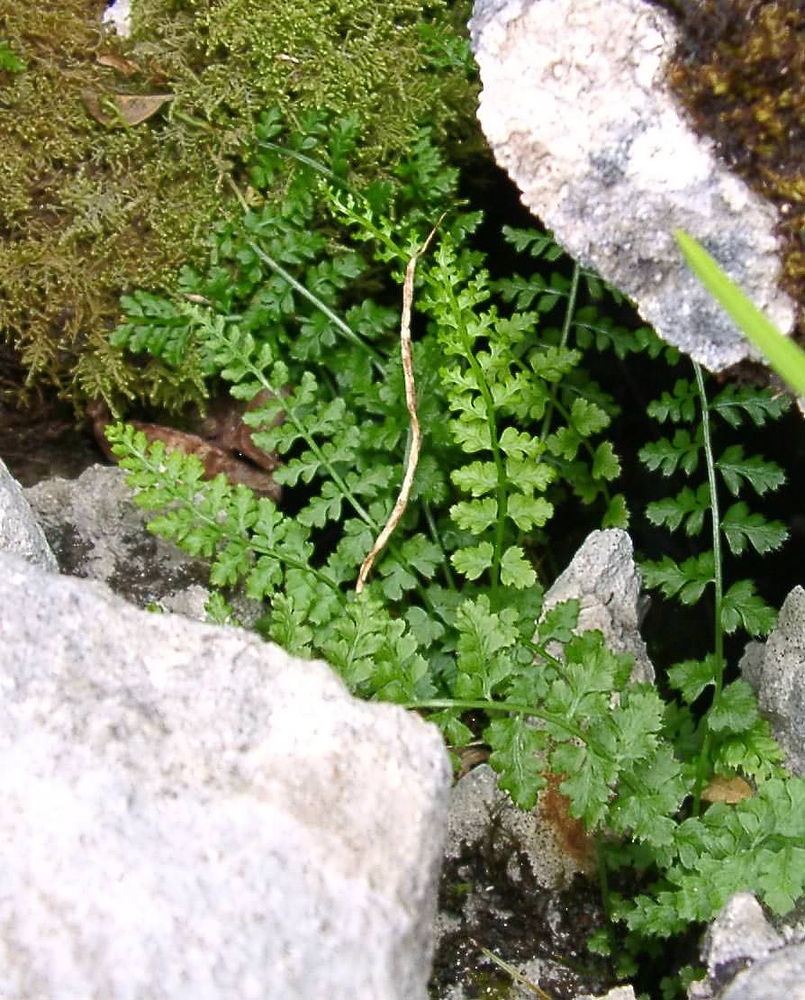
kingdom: Plantae
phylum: Tracheophyta
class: Polypodiopsida
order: Polypodiales
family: Aspleniaceae
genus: Asplenium
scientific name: Asplenium fontanum
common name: Fountain spleenwort
